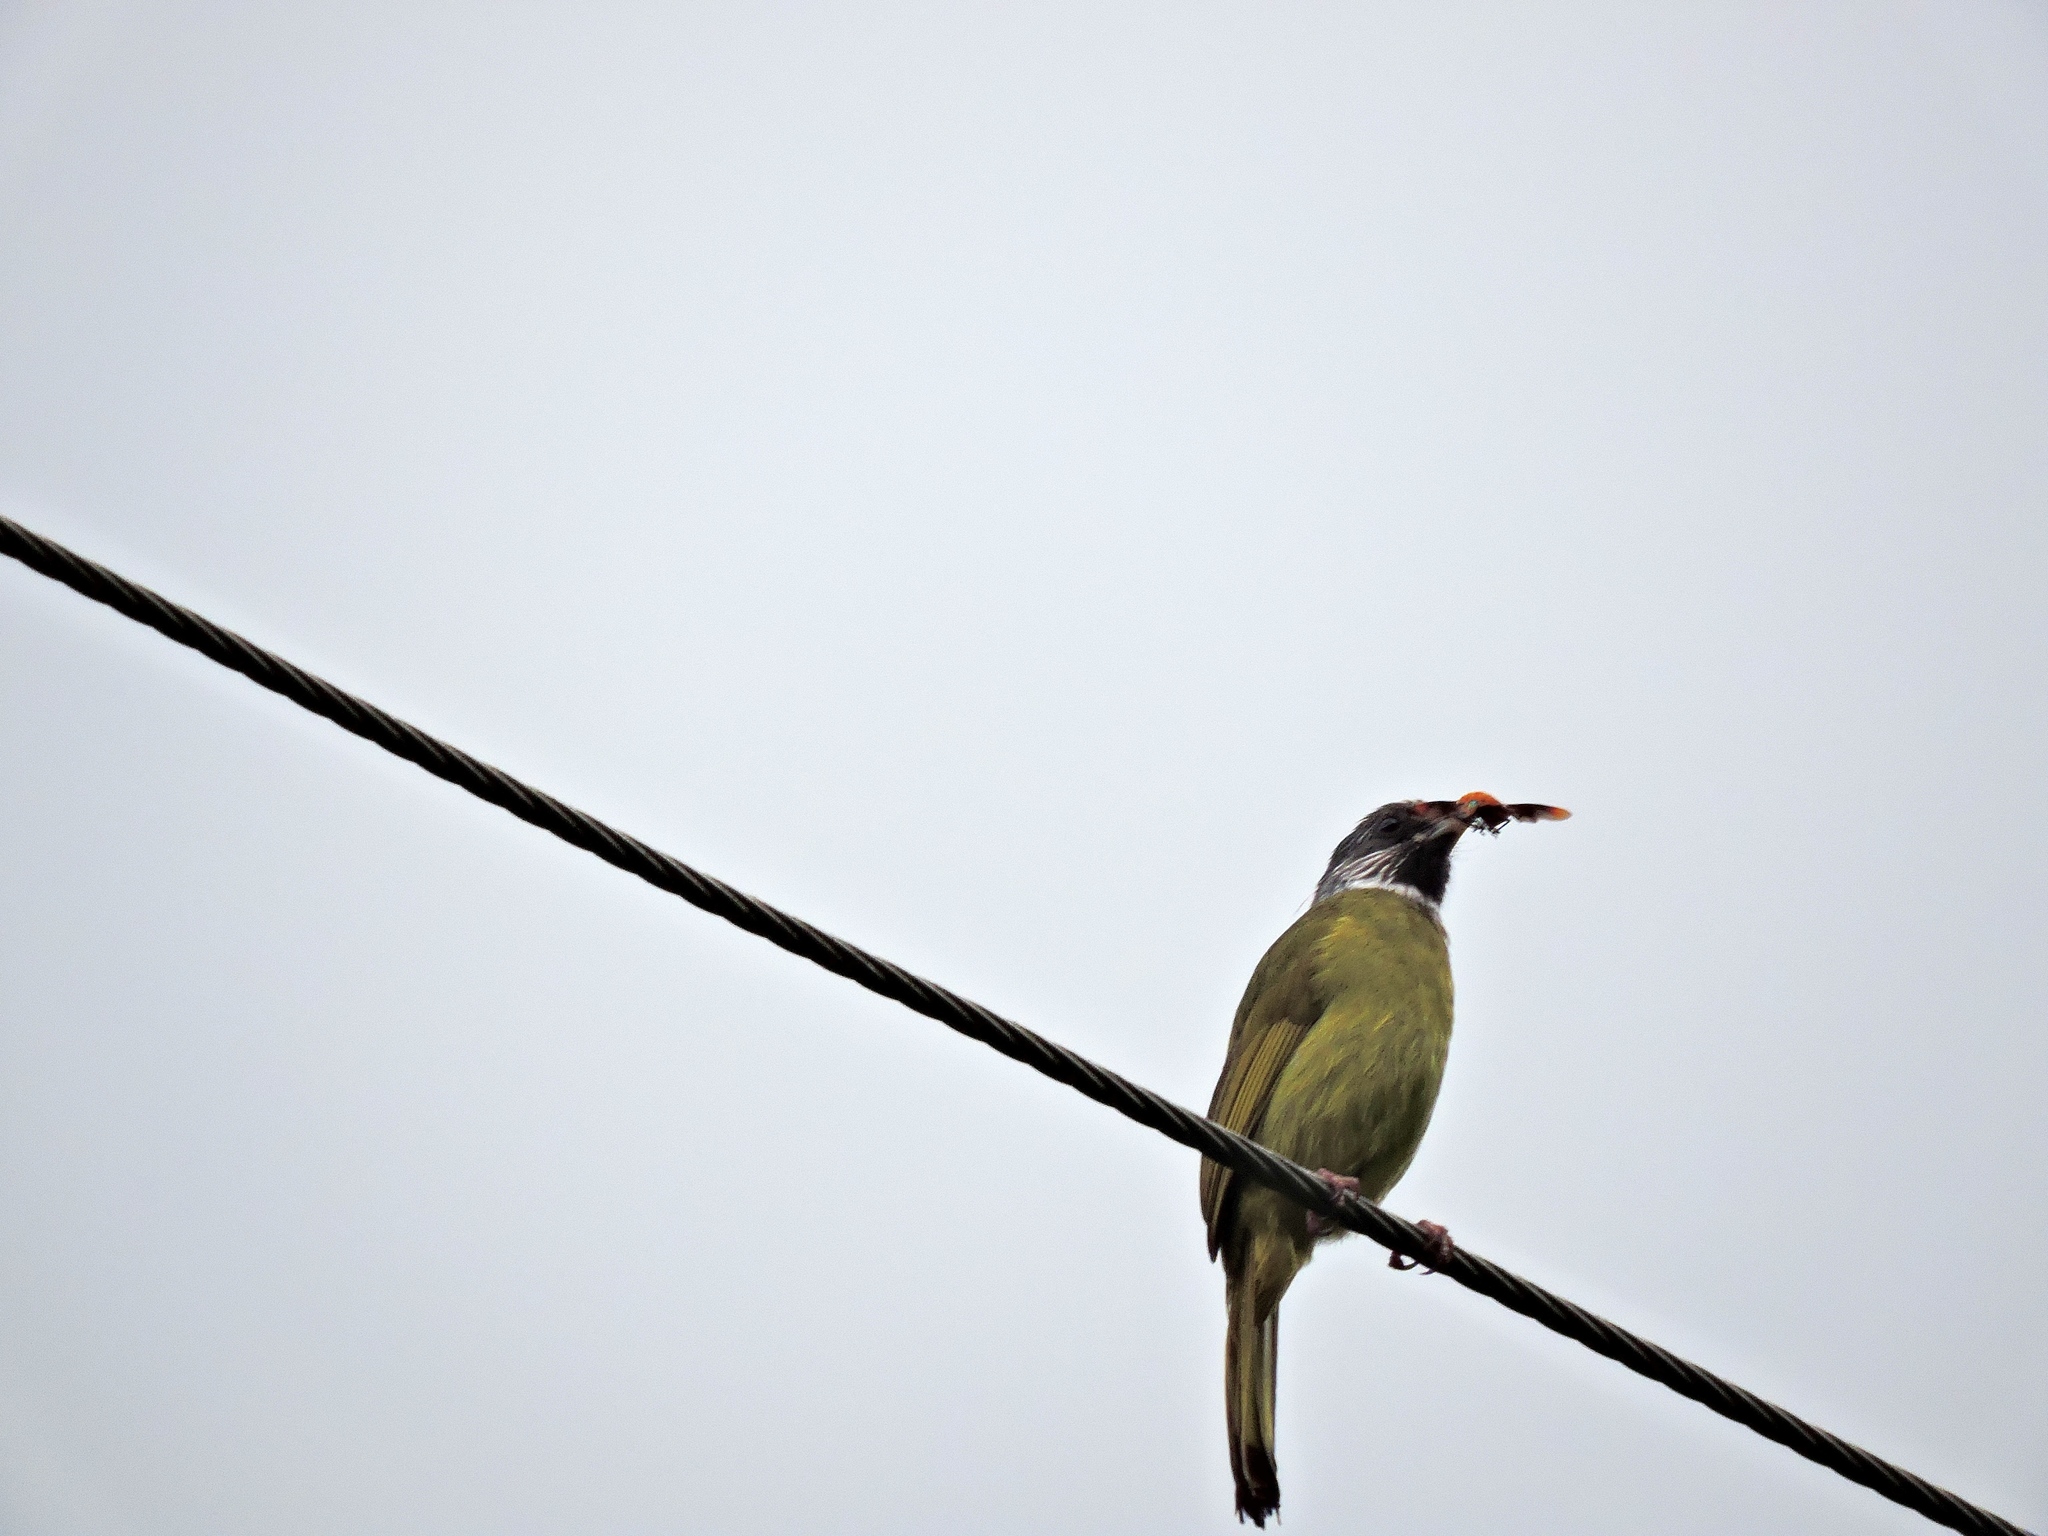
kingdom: Animalia
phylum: Chordata
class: Aves
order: Passeriformes
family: Pycnonotidae
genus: Spizixos
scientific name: Spizixos semitorques
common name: Collared finchbill
